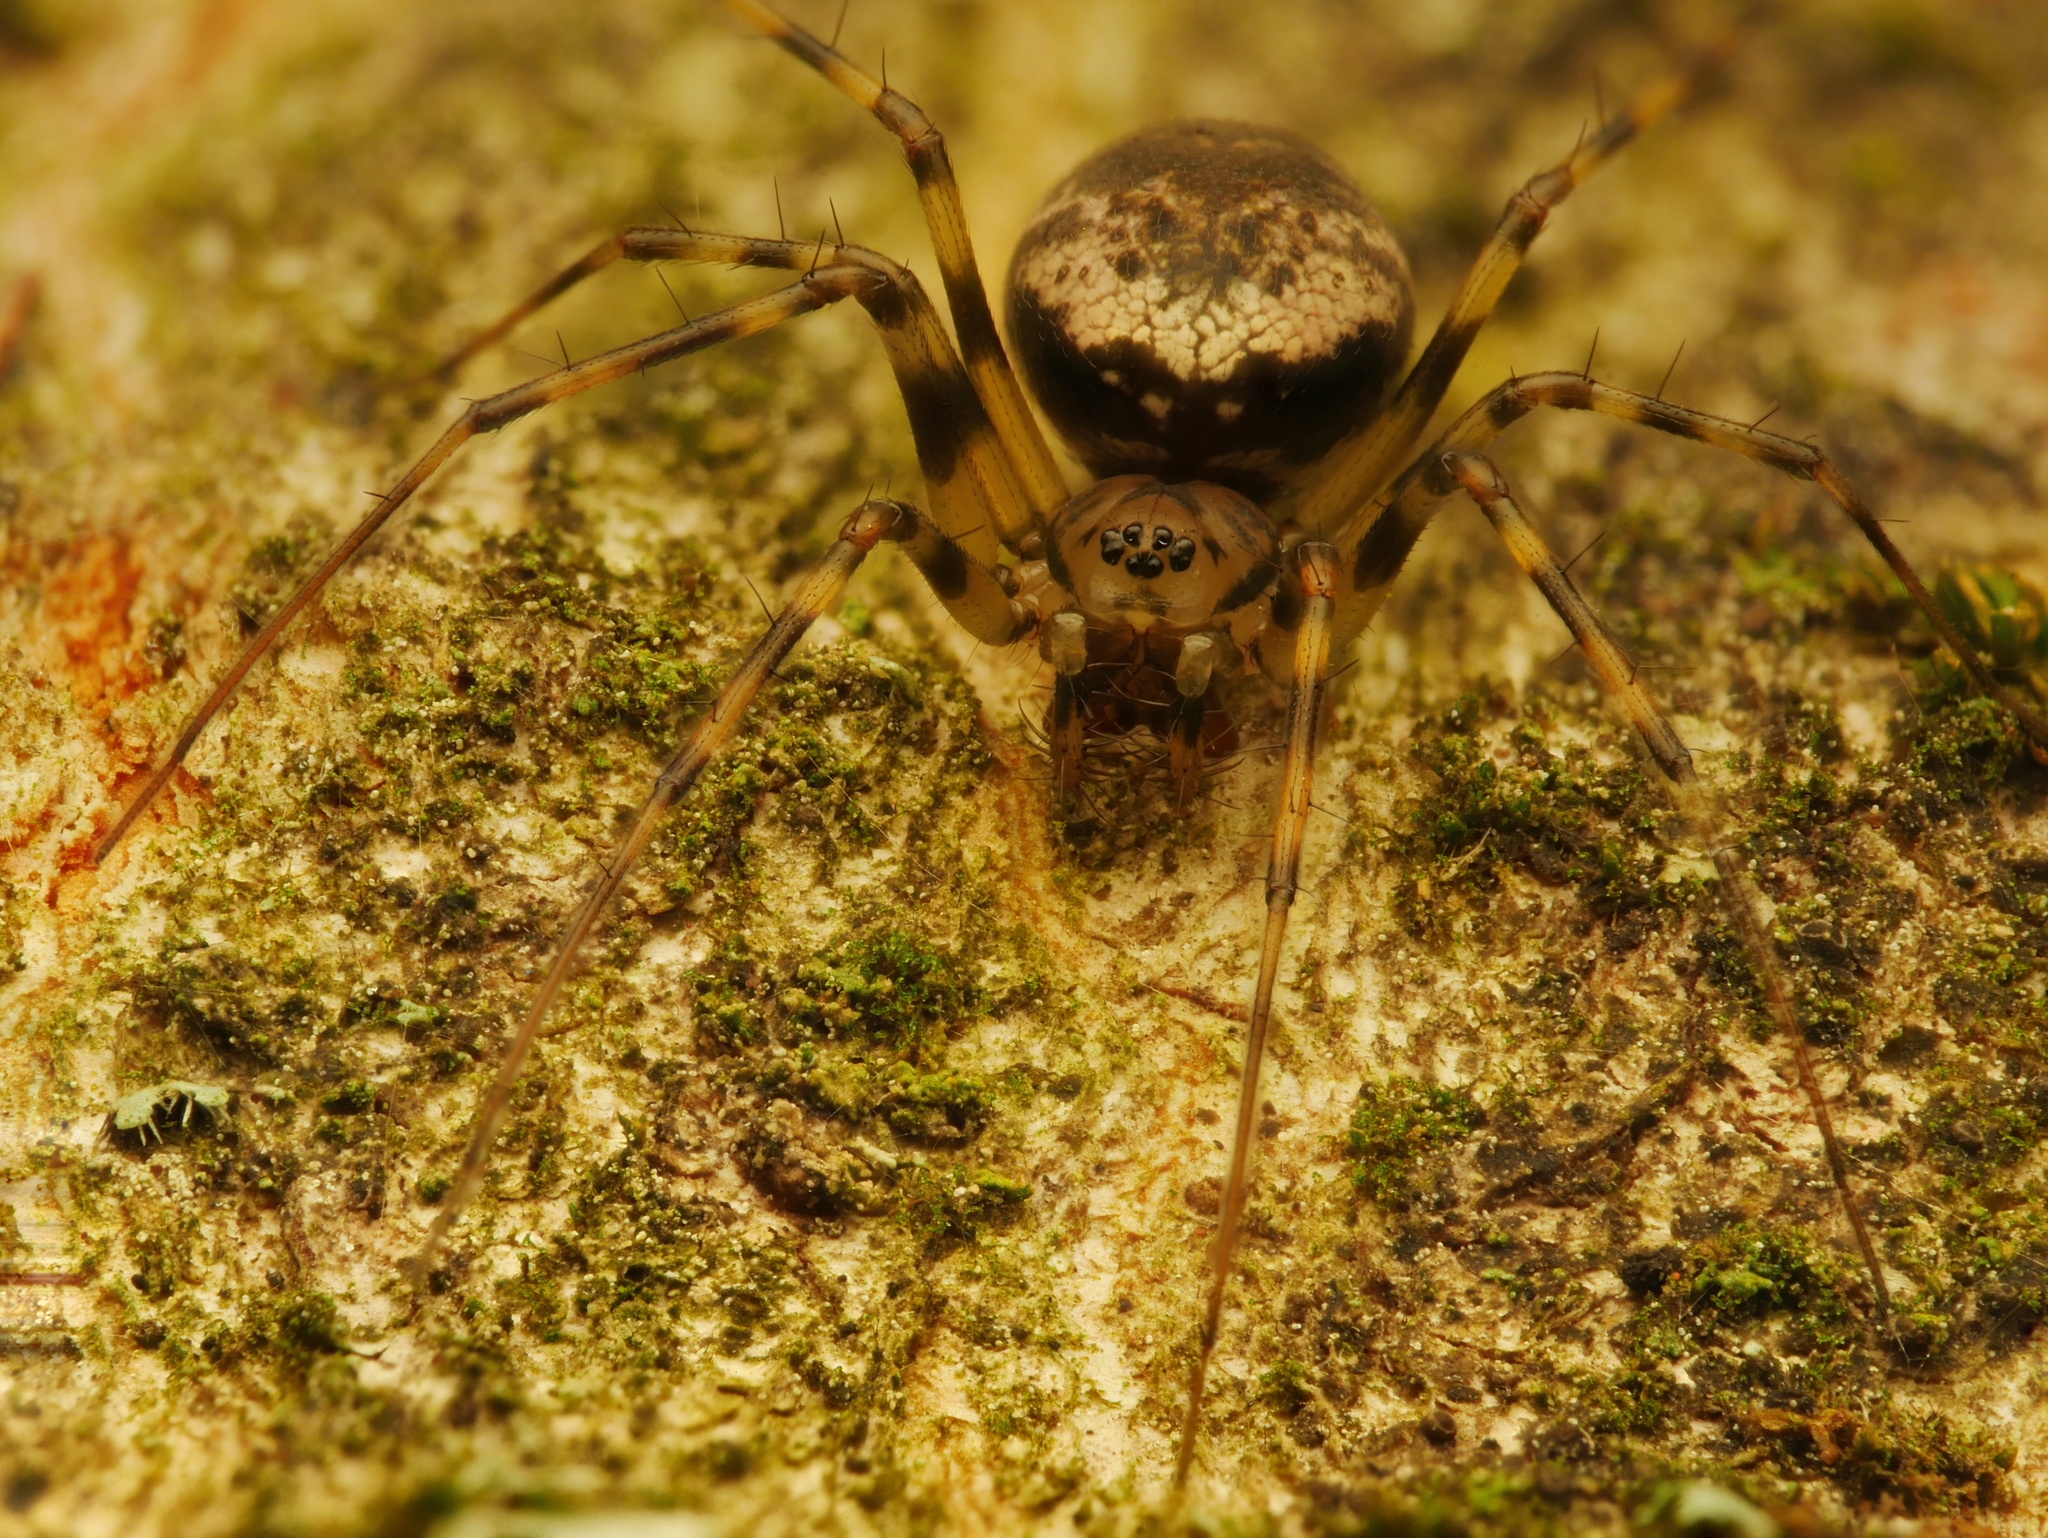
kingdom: Animalia
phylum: Arthropoda
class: Arachnida
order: Araneae
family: Linyphiidae
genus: Drapetisca
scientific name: Drapetisca socialis
